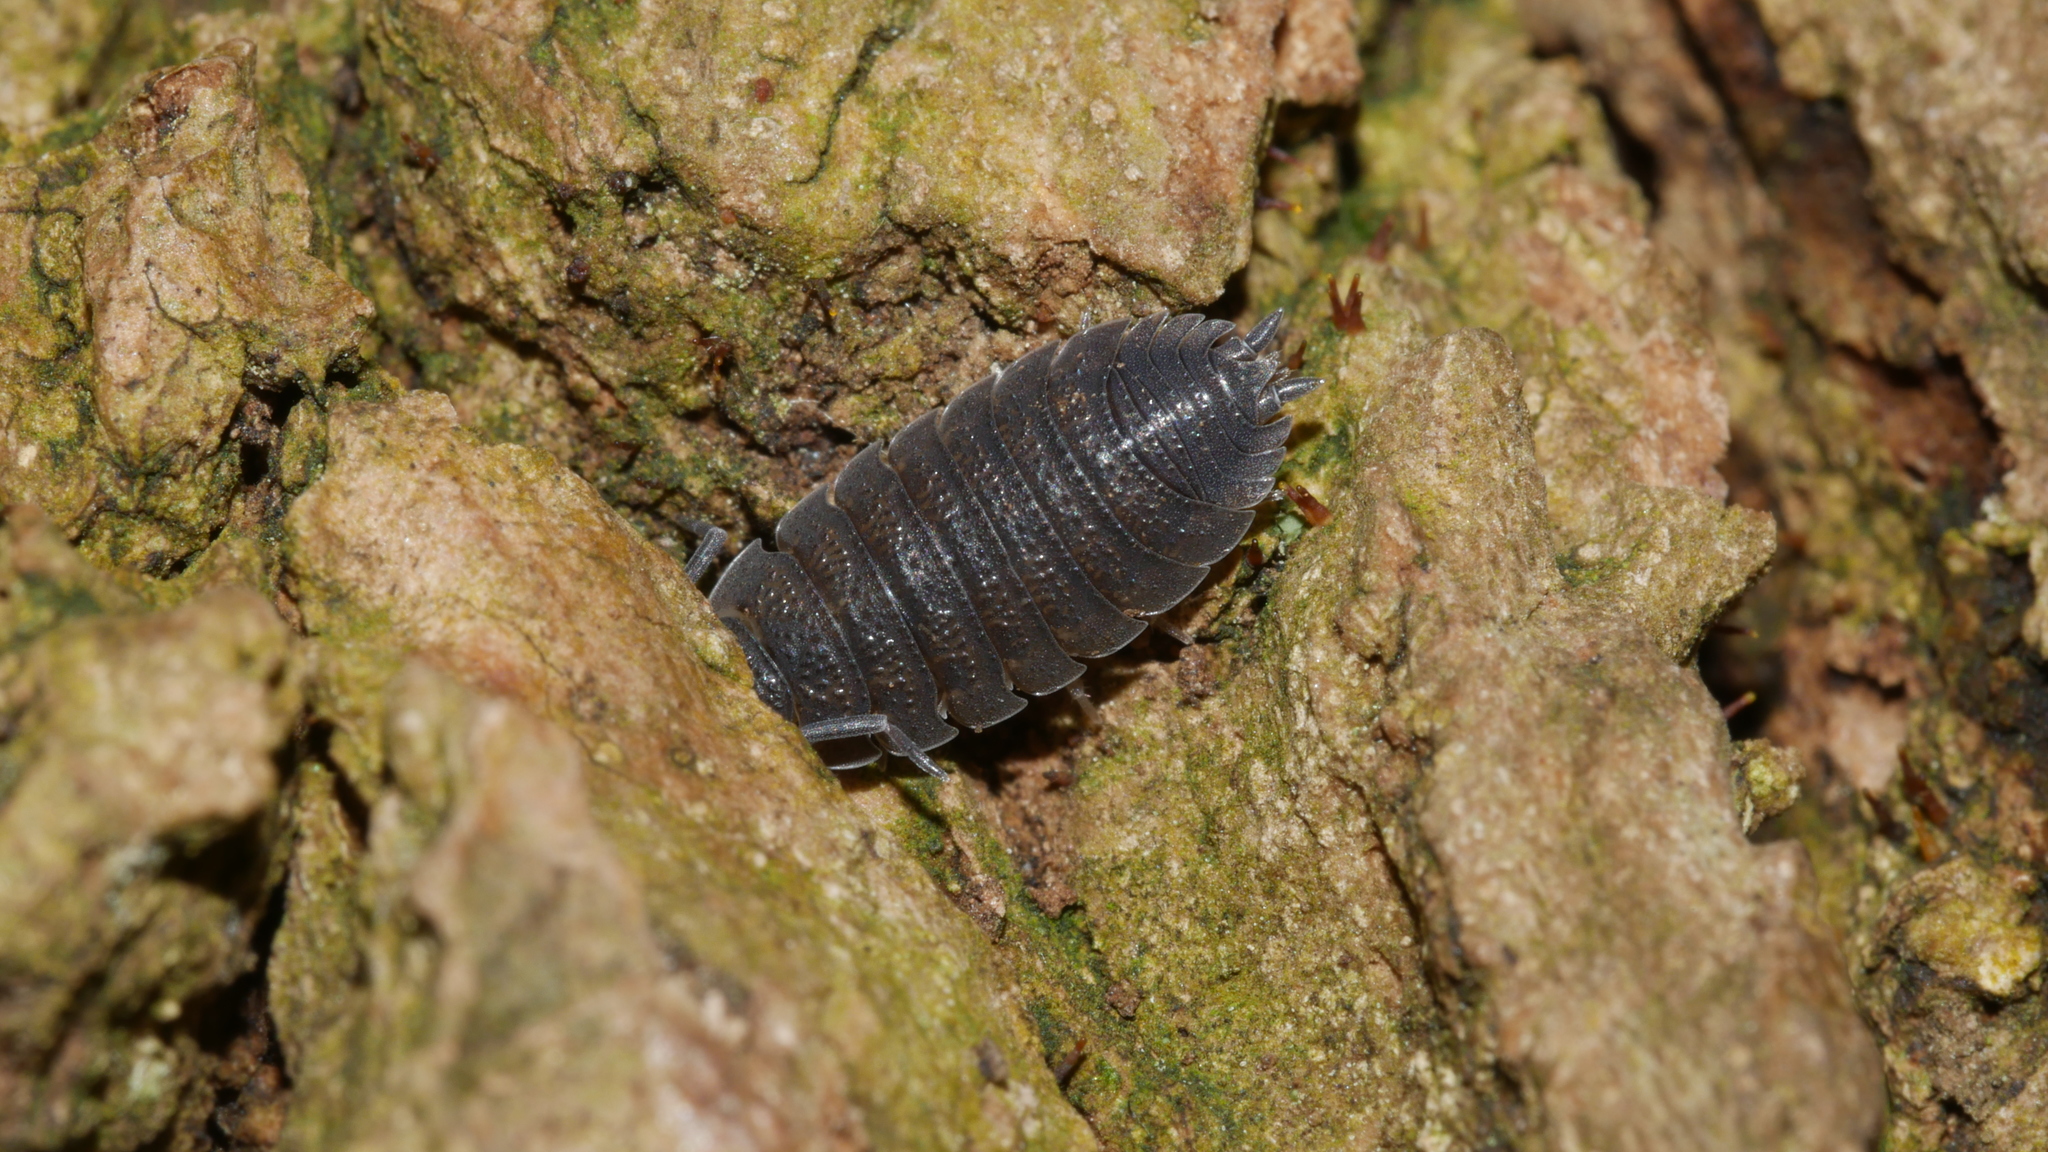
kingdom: Animalia
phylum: Arthropoda
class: Malacostraca
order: Isopoda
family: Porcellionidae
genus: Porcellio
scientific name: Porcellio scaber
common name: Common rough woodlouse
